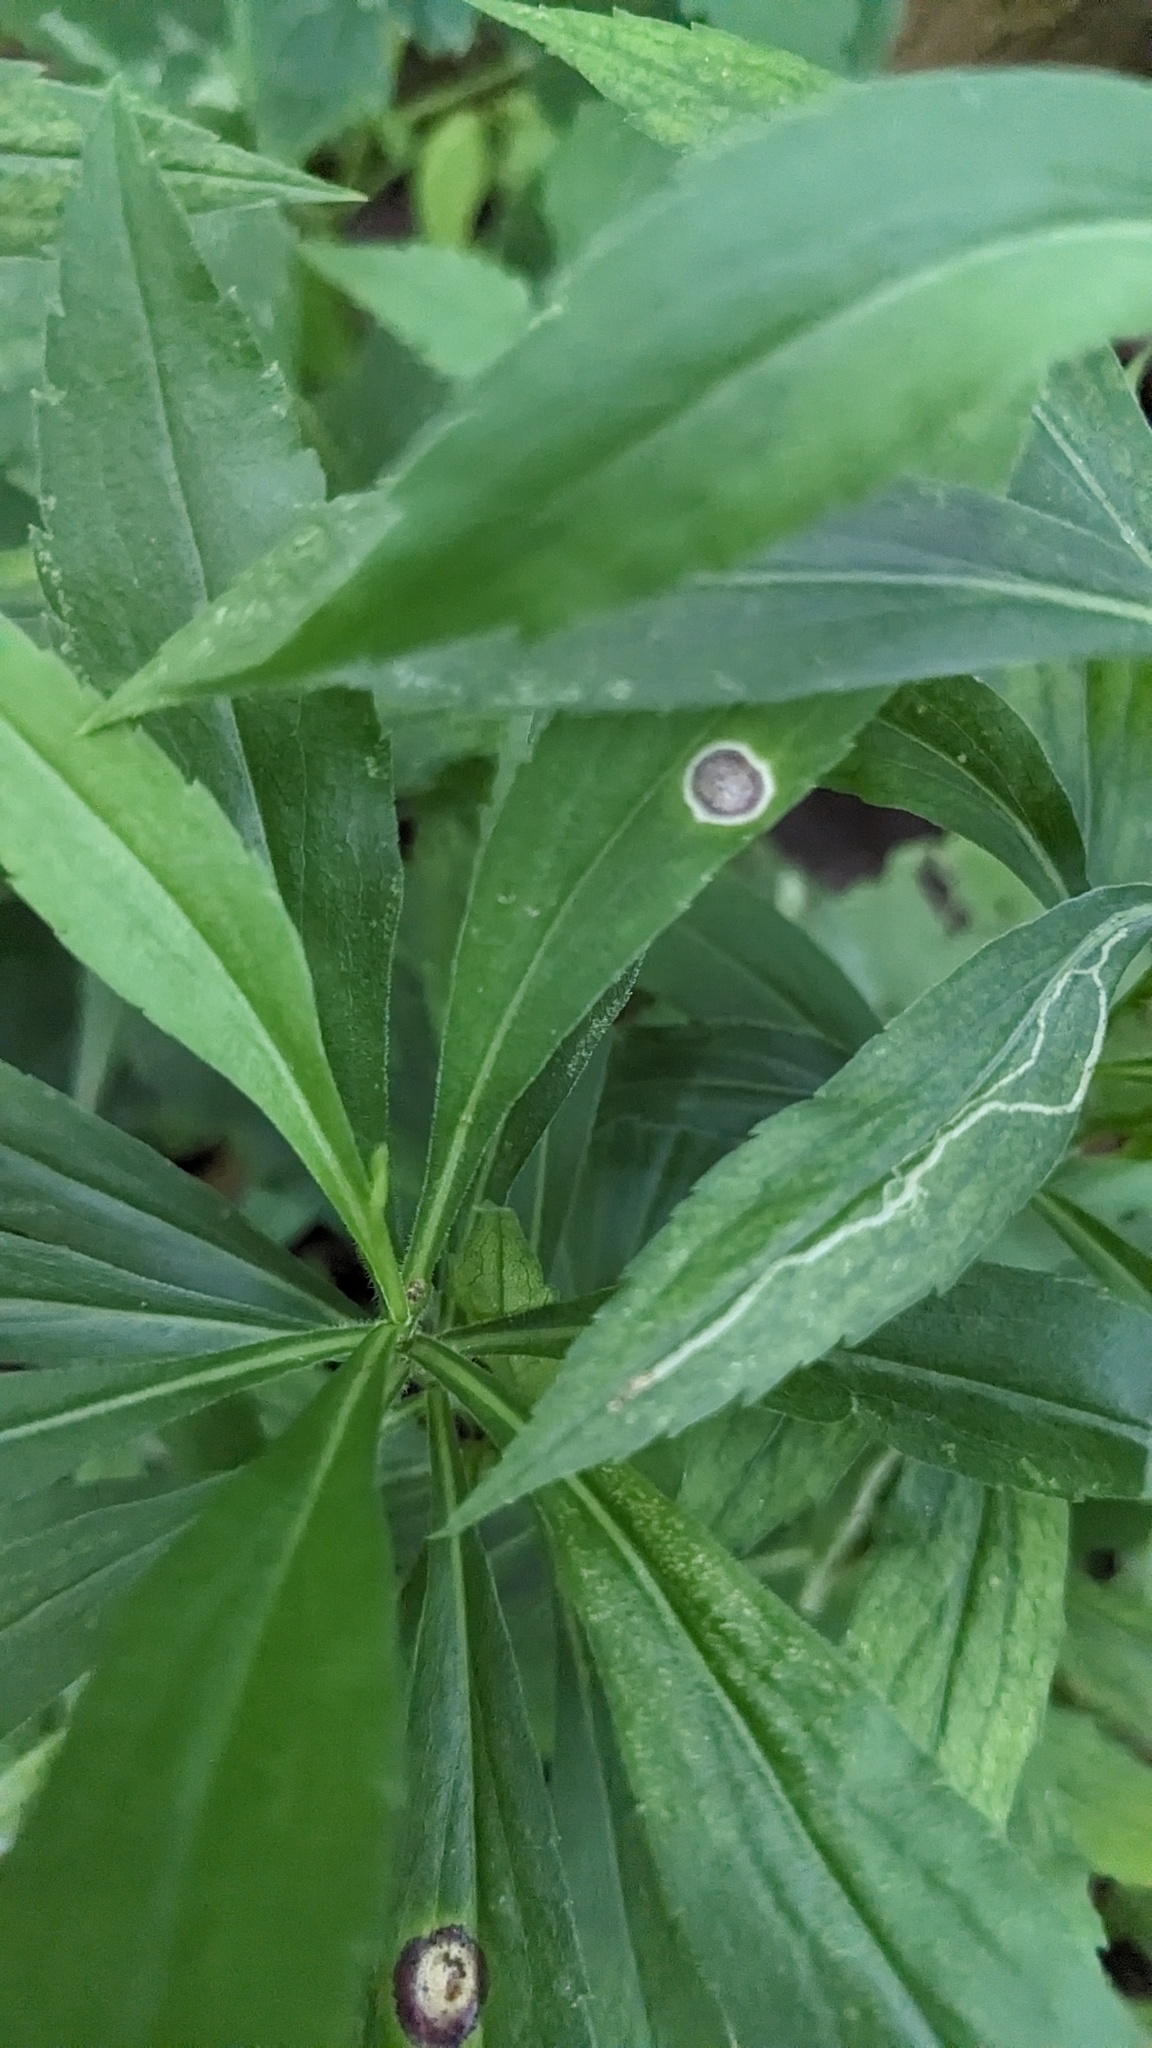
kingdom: Animalia
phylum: Arthropoda
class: Insecta
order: Diptera
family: Cecidomyiidae
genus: Asteromyia
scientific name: Asteromyia carbonifera
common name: Carbonifera goldenrod gall midge
